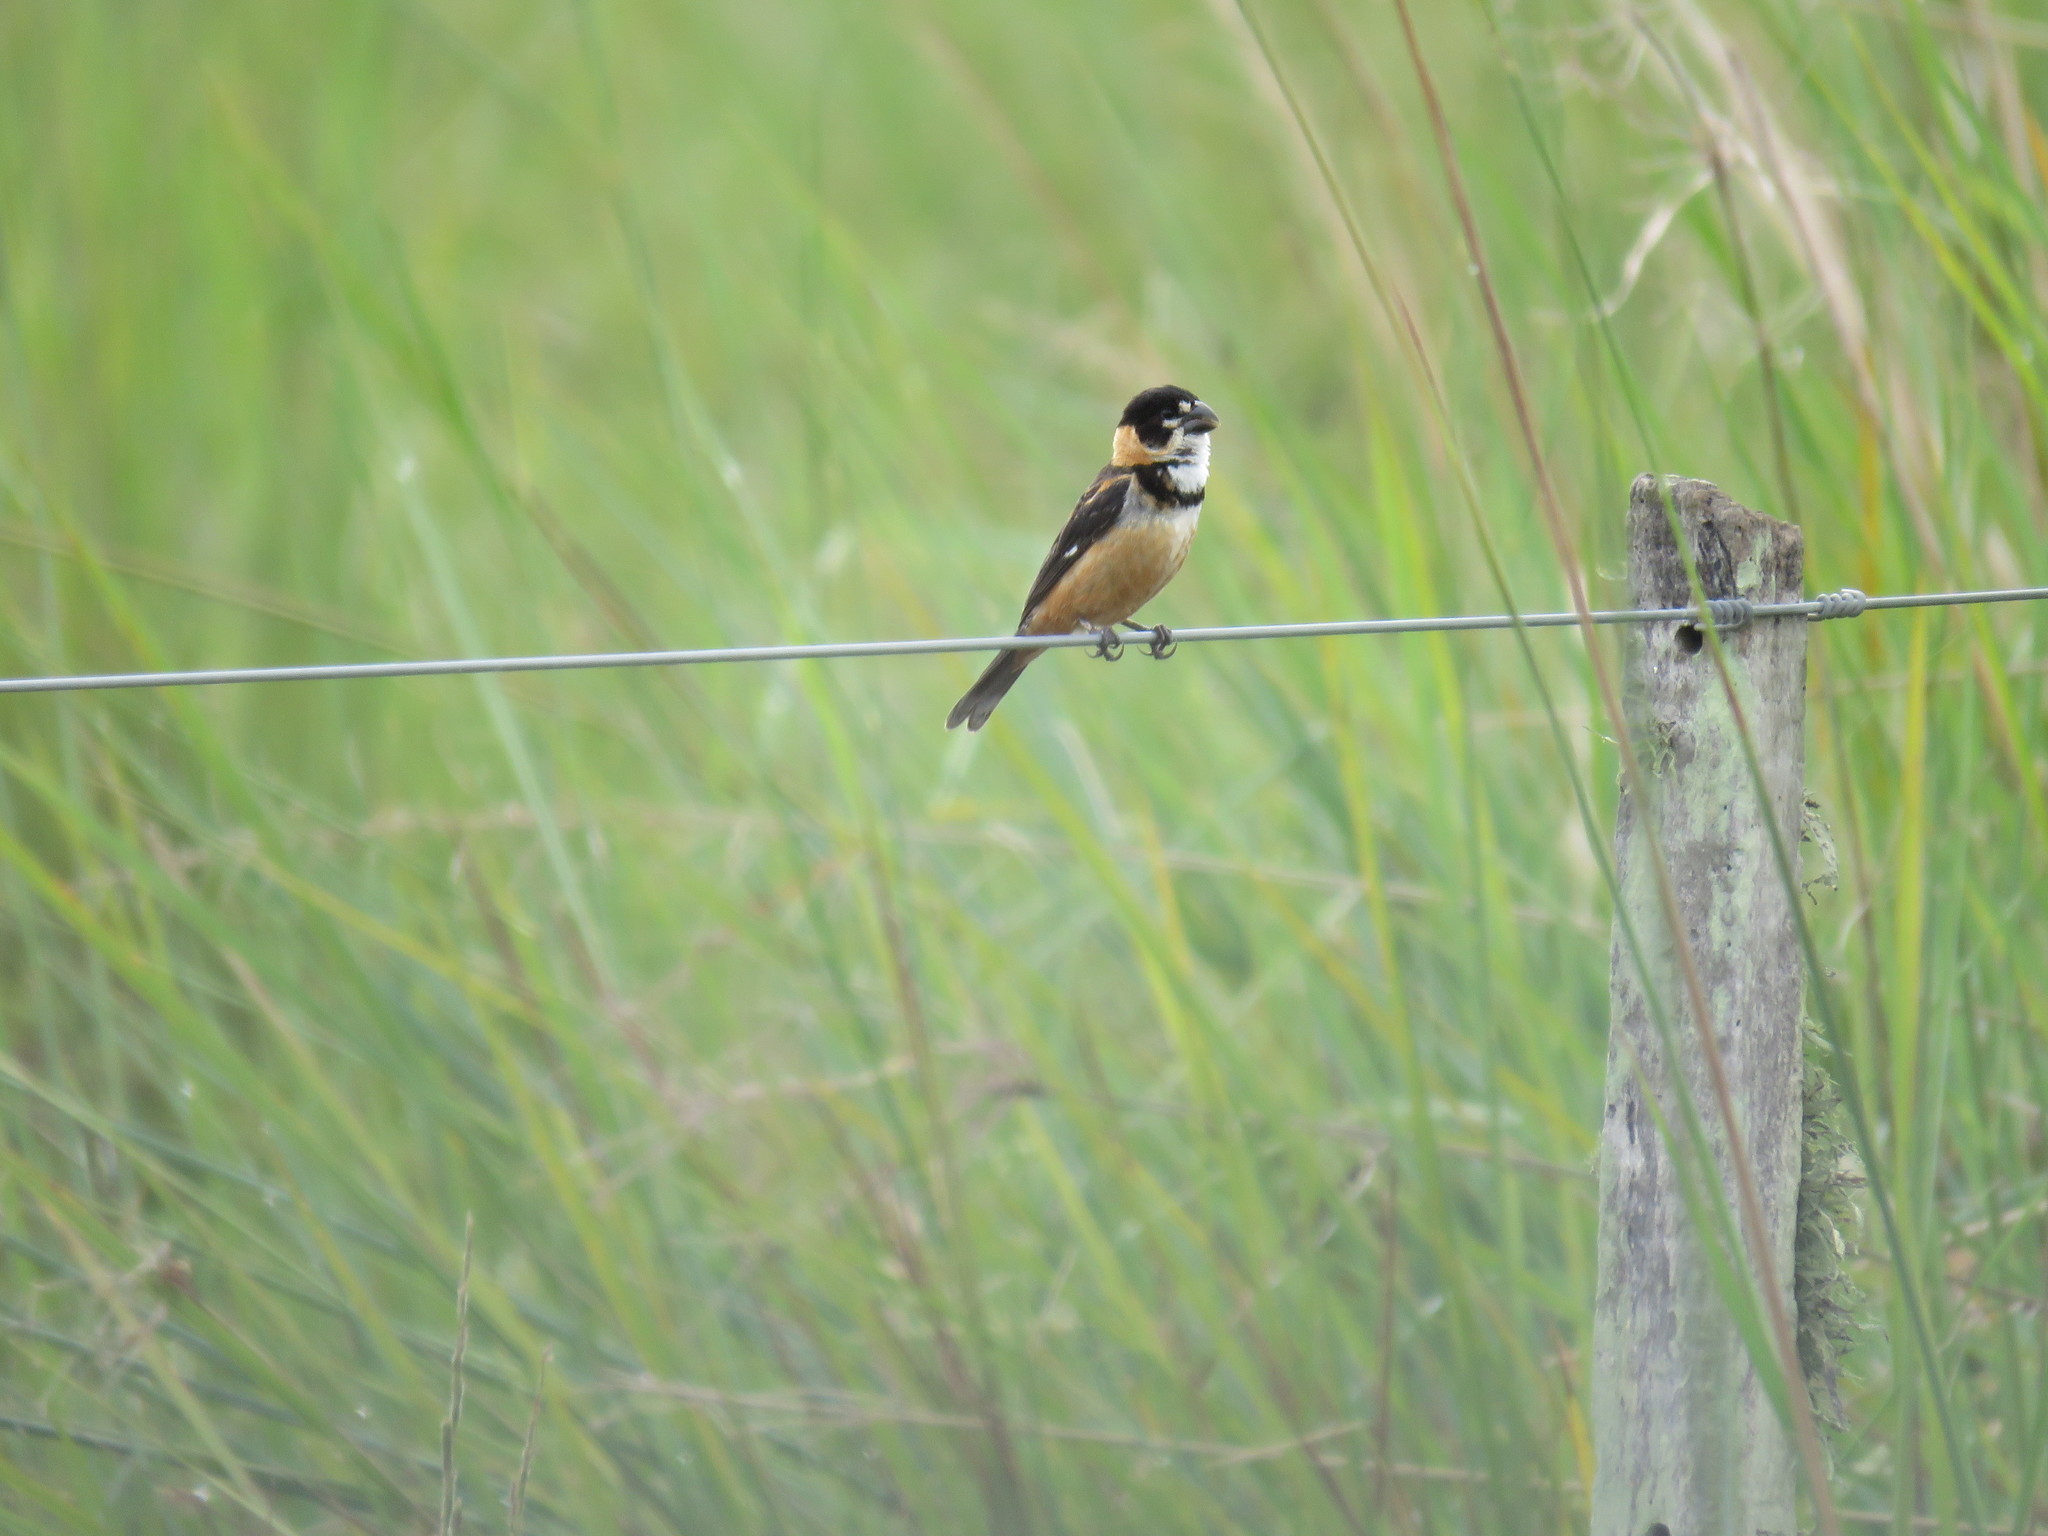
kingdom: Animalia
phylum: Chordata
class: Aves
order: Passeriformes
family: Thraupidae
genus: Sporophila
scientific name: Sporophila collaris
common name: Rusty-collared seedeater
